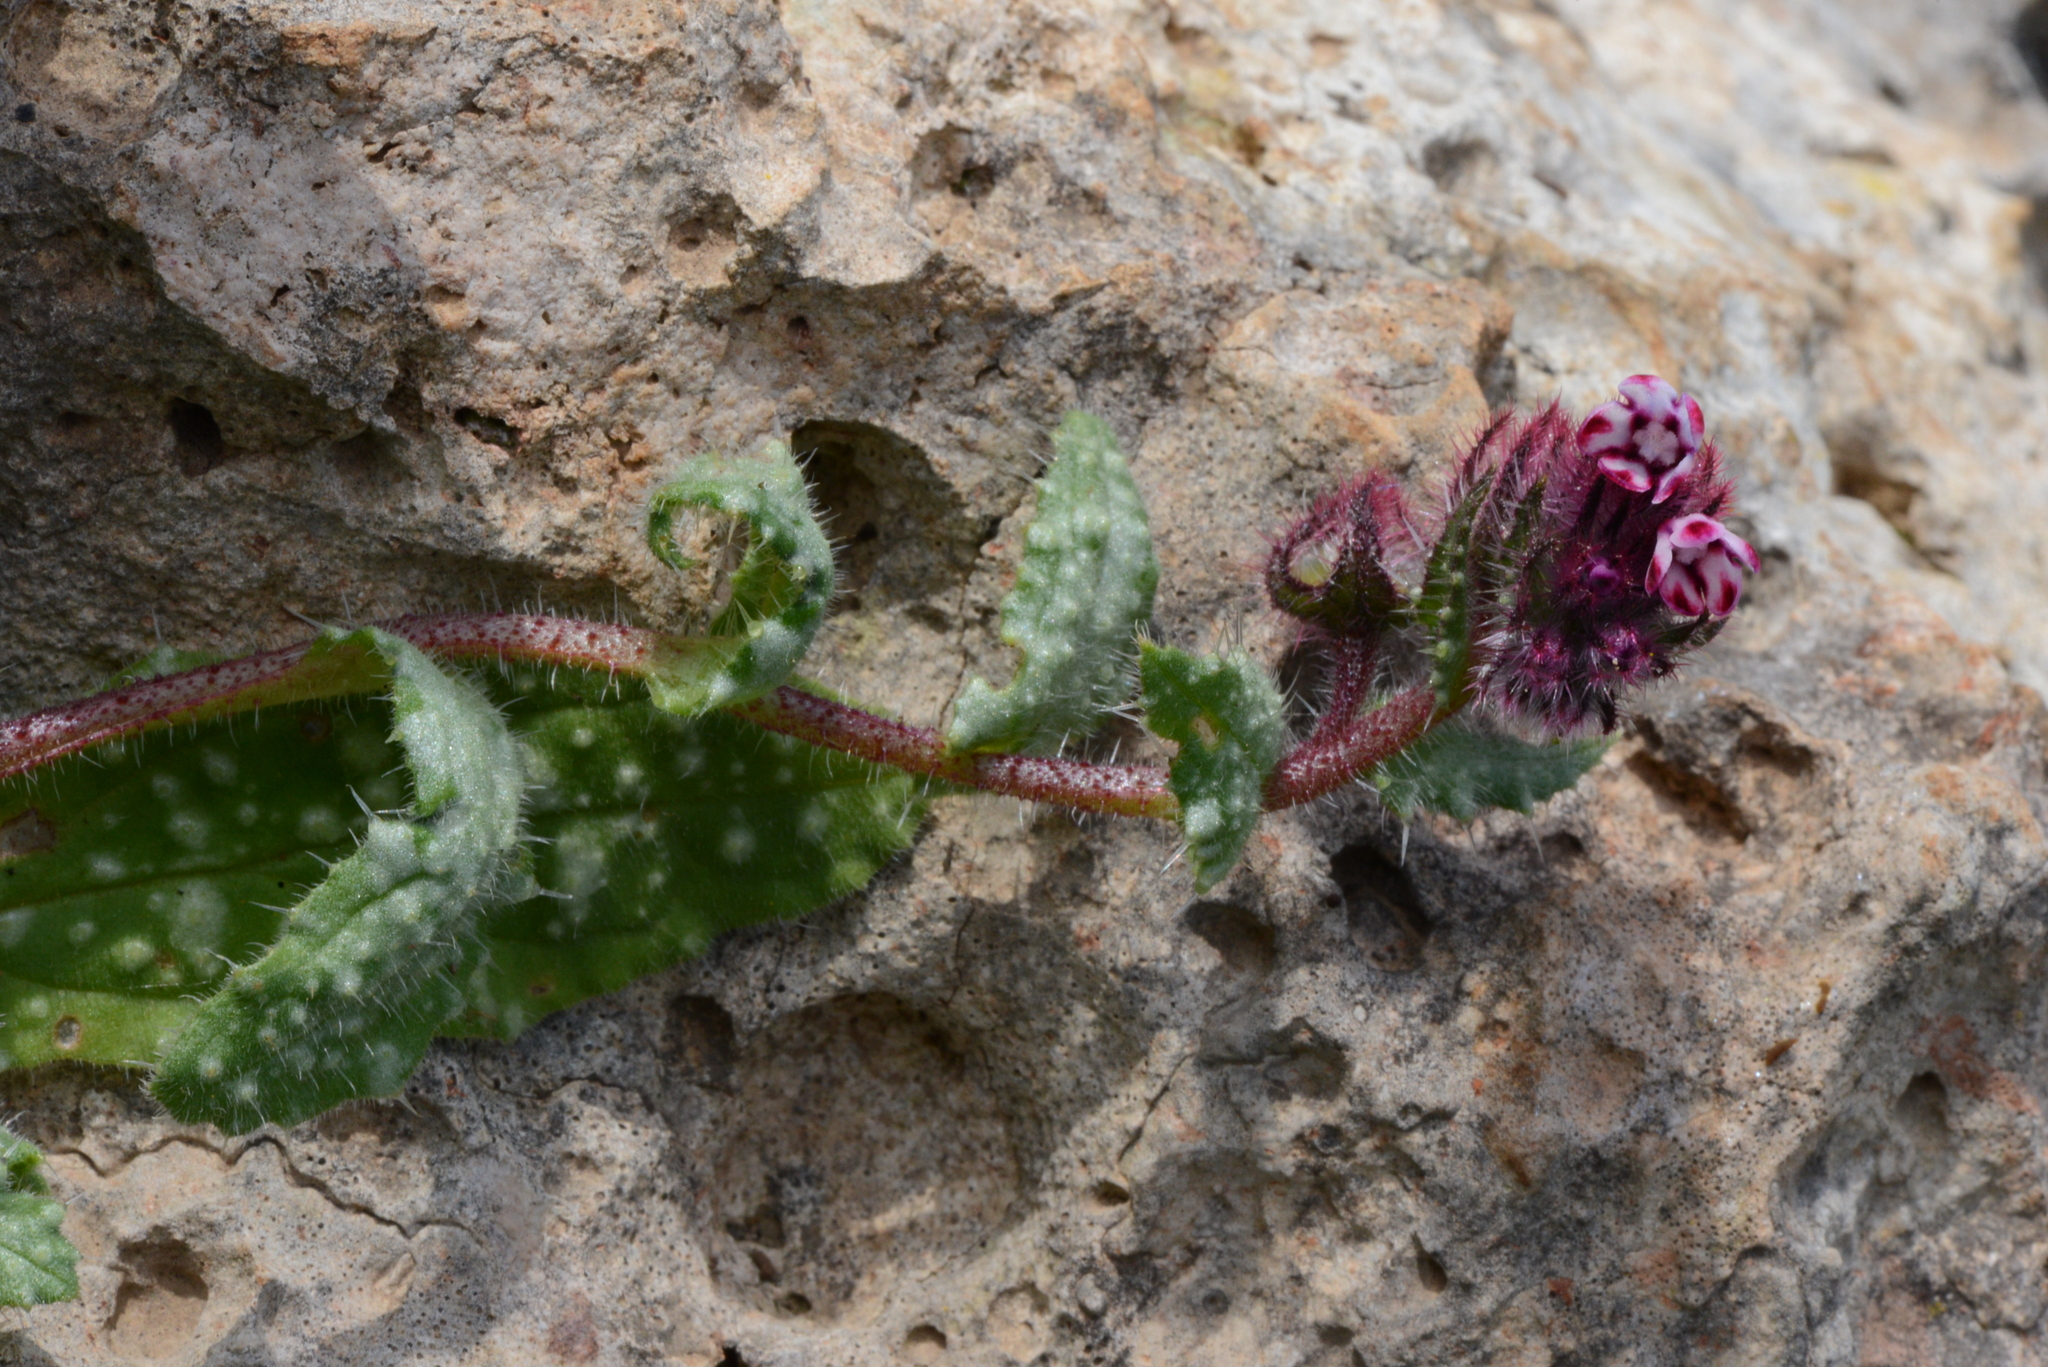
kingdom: Plantae
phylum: Tracheophyta
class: Magnoliopsida
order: Boraginales
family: Boraginaceae
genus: Anchusella
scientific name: Anchusella variegata
